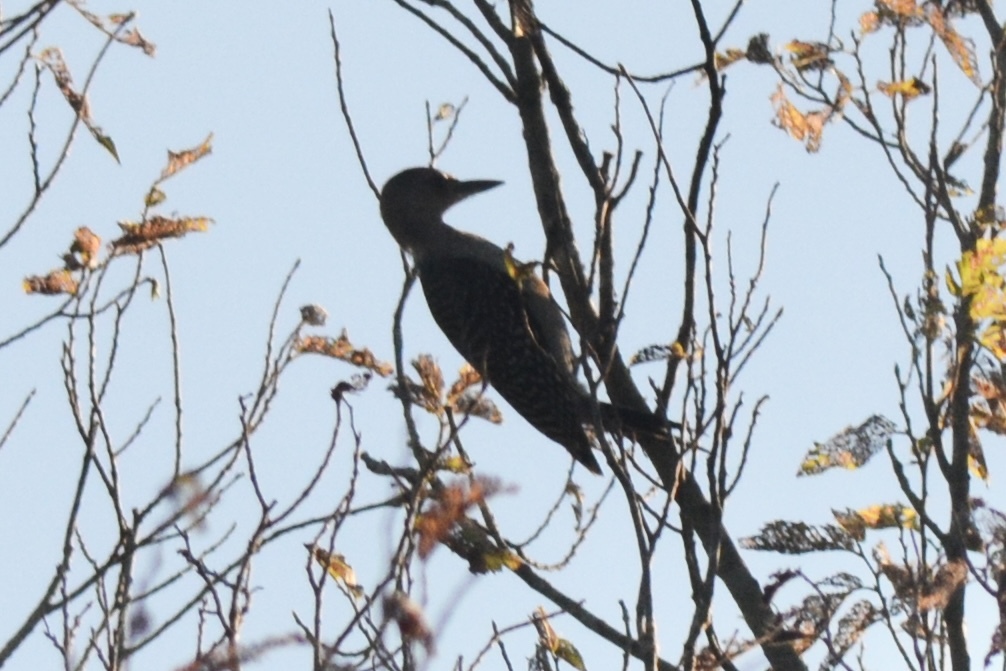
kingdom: Animalia
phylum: Chordata
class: Aves
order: Piciformes
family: Picidae
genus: Melanerpes
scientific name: Melanerpes carolinus
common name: Red-bellied woodpecker
